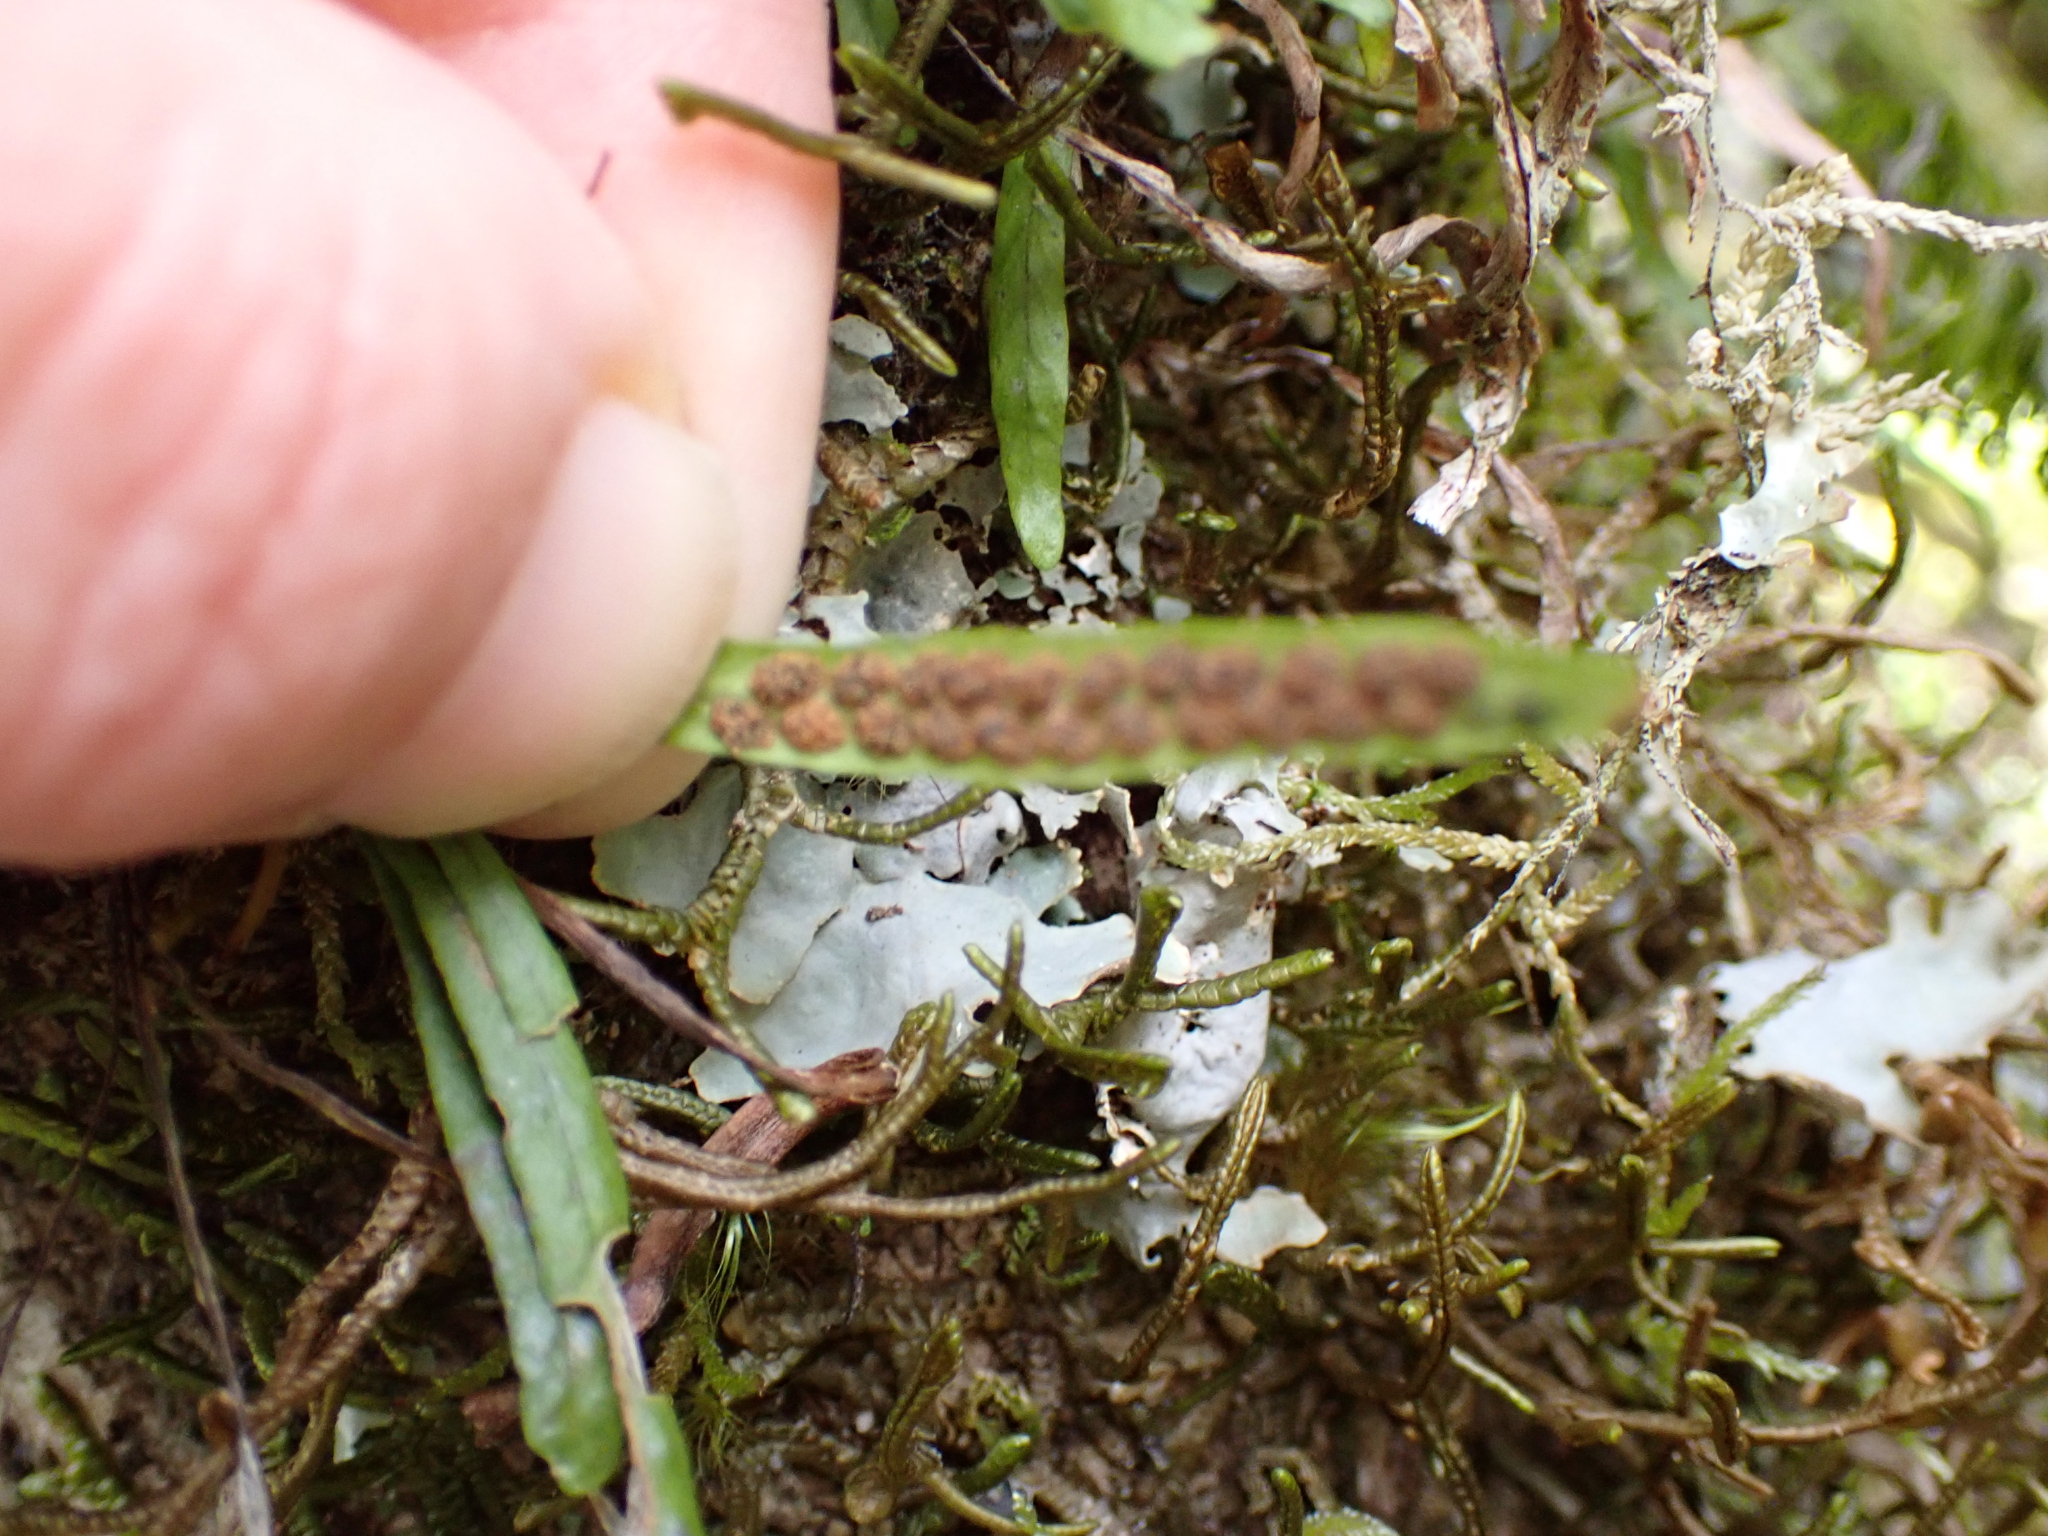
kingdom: Plantae
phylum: Tracheophyta
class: Polypodiopsida
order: Polypodiales
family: Polypodiaceae
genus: Notogrammitis
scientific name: Notogrammitis angustifolia
